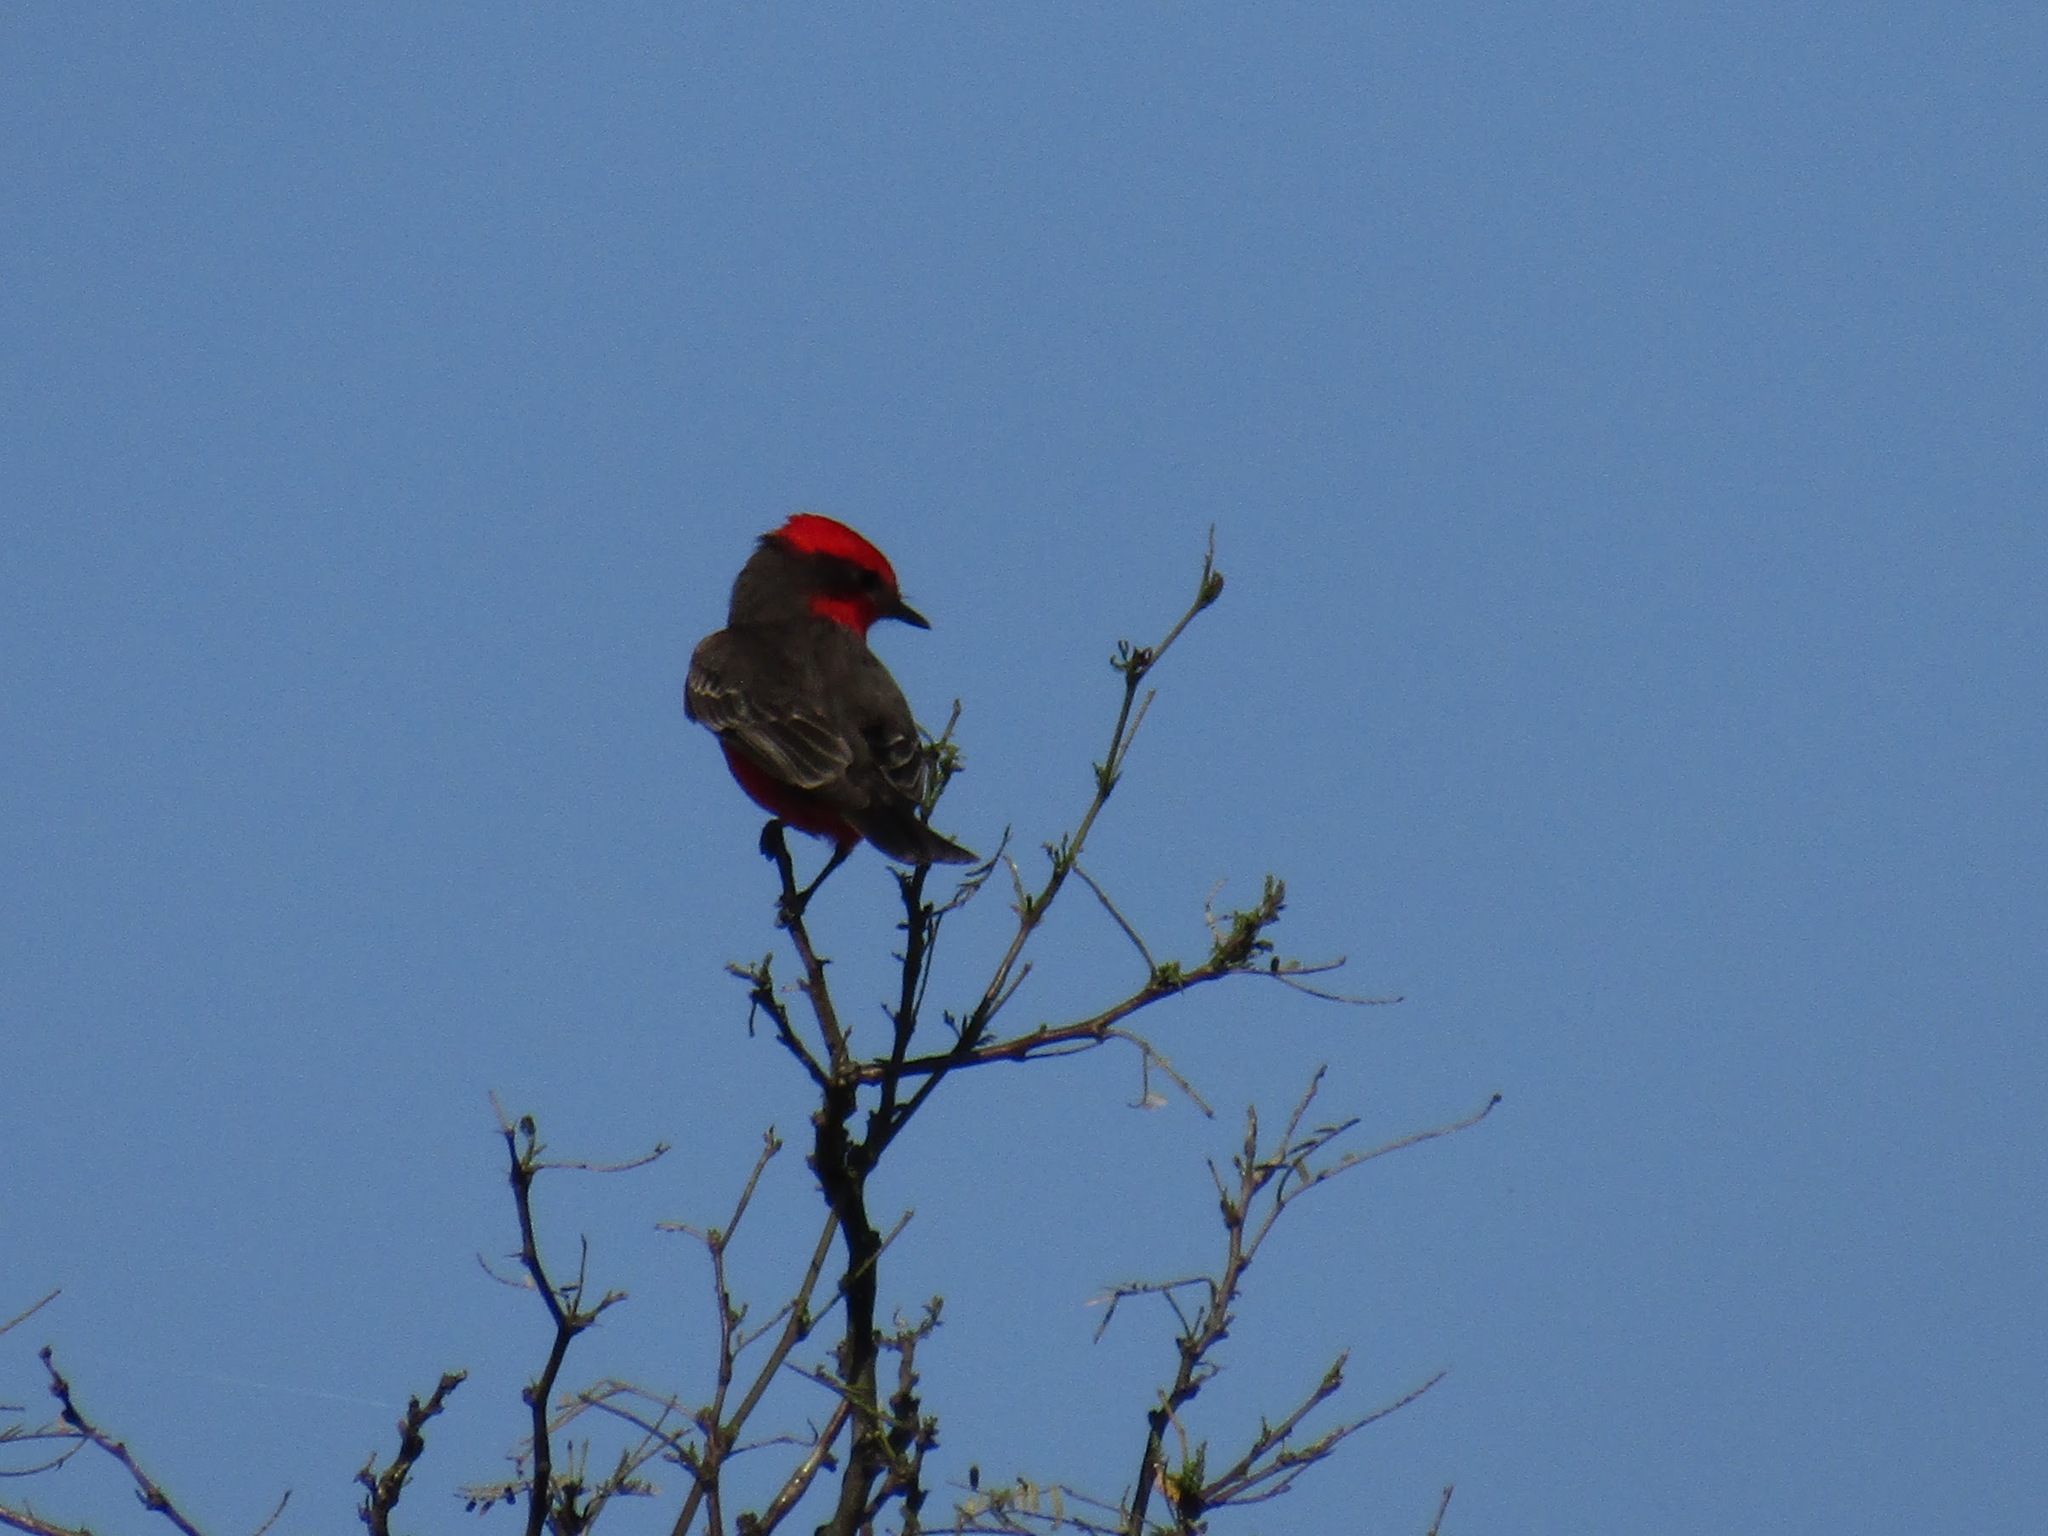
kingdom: Animalia
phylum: Chordata
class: Aves
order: Passeriformes
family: Tyrannidae
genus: Pyrocephalus
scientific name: Pyrocephalus rubinus
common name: Vermilion flycatcher
